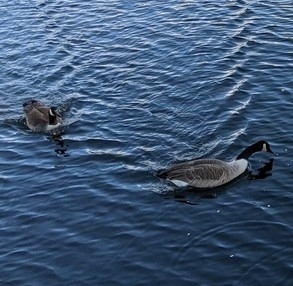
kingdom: Animalia
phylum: Chordata
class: Aves
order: Anseriformes
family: Anatidae
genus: Branta
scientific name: Branta canadensis
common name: Canada goose
